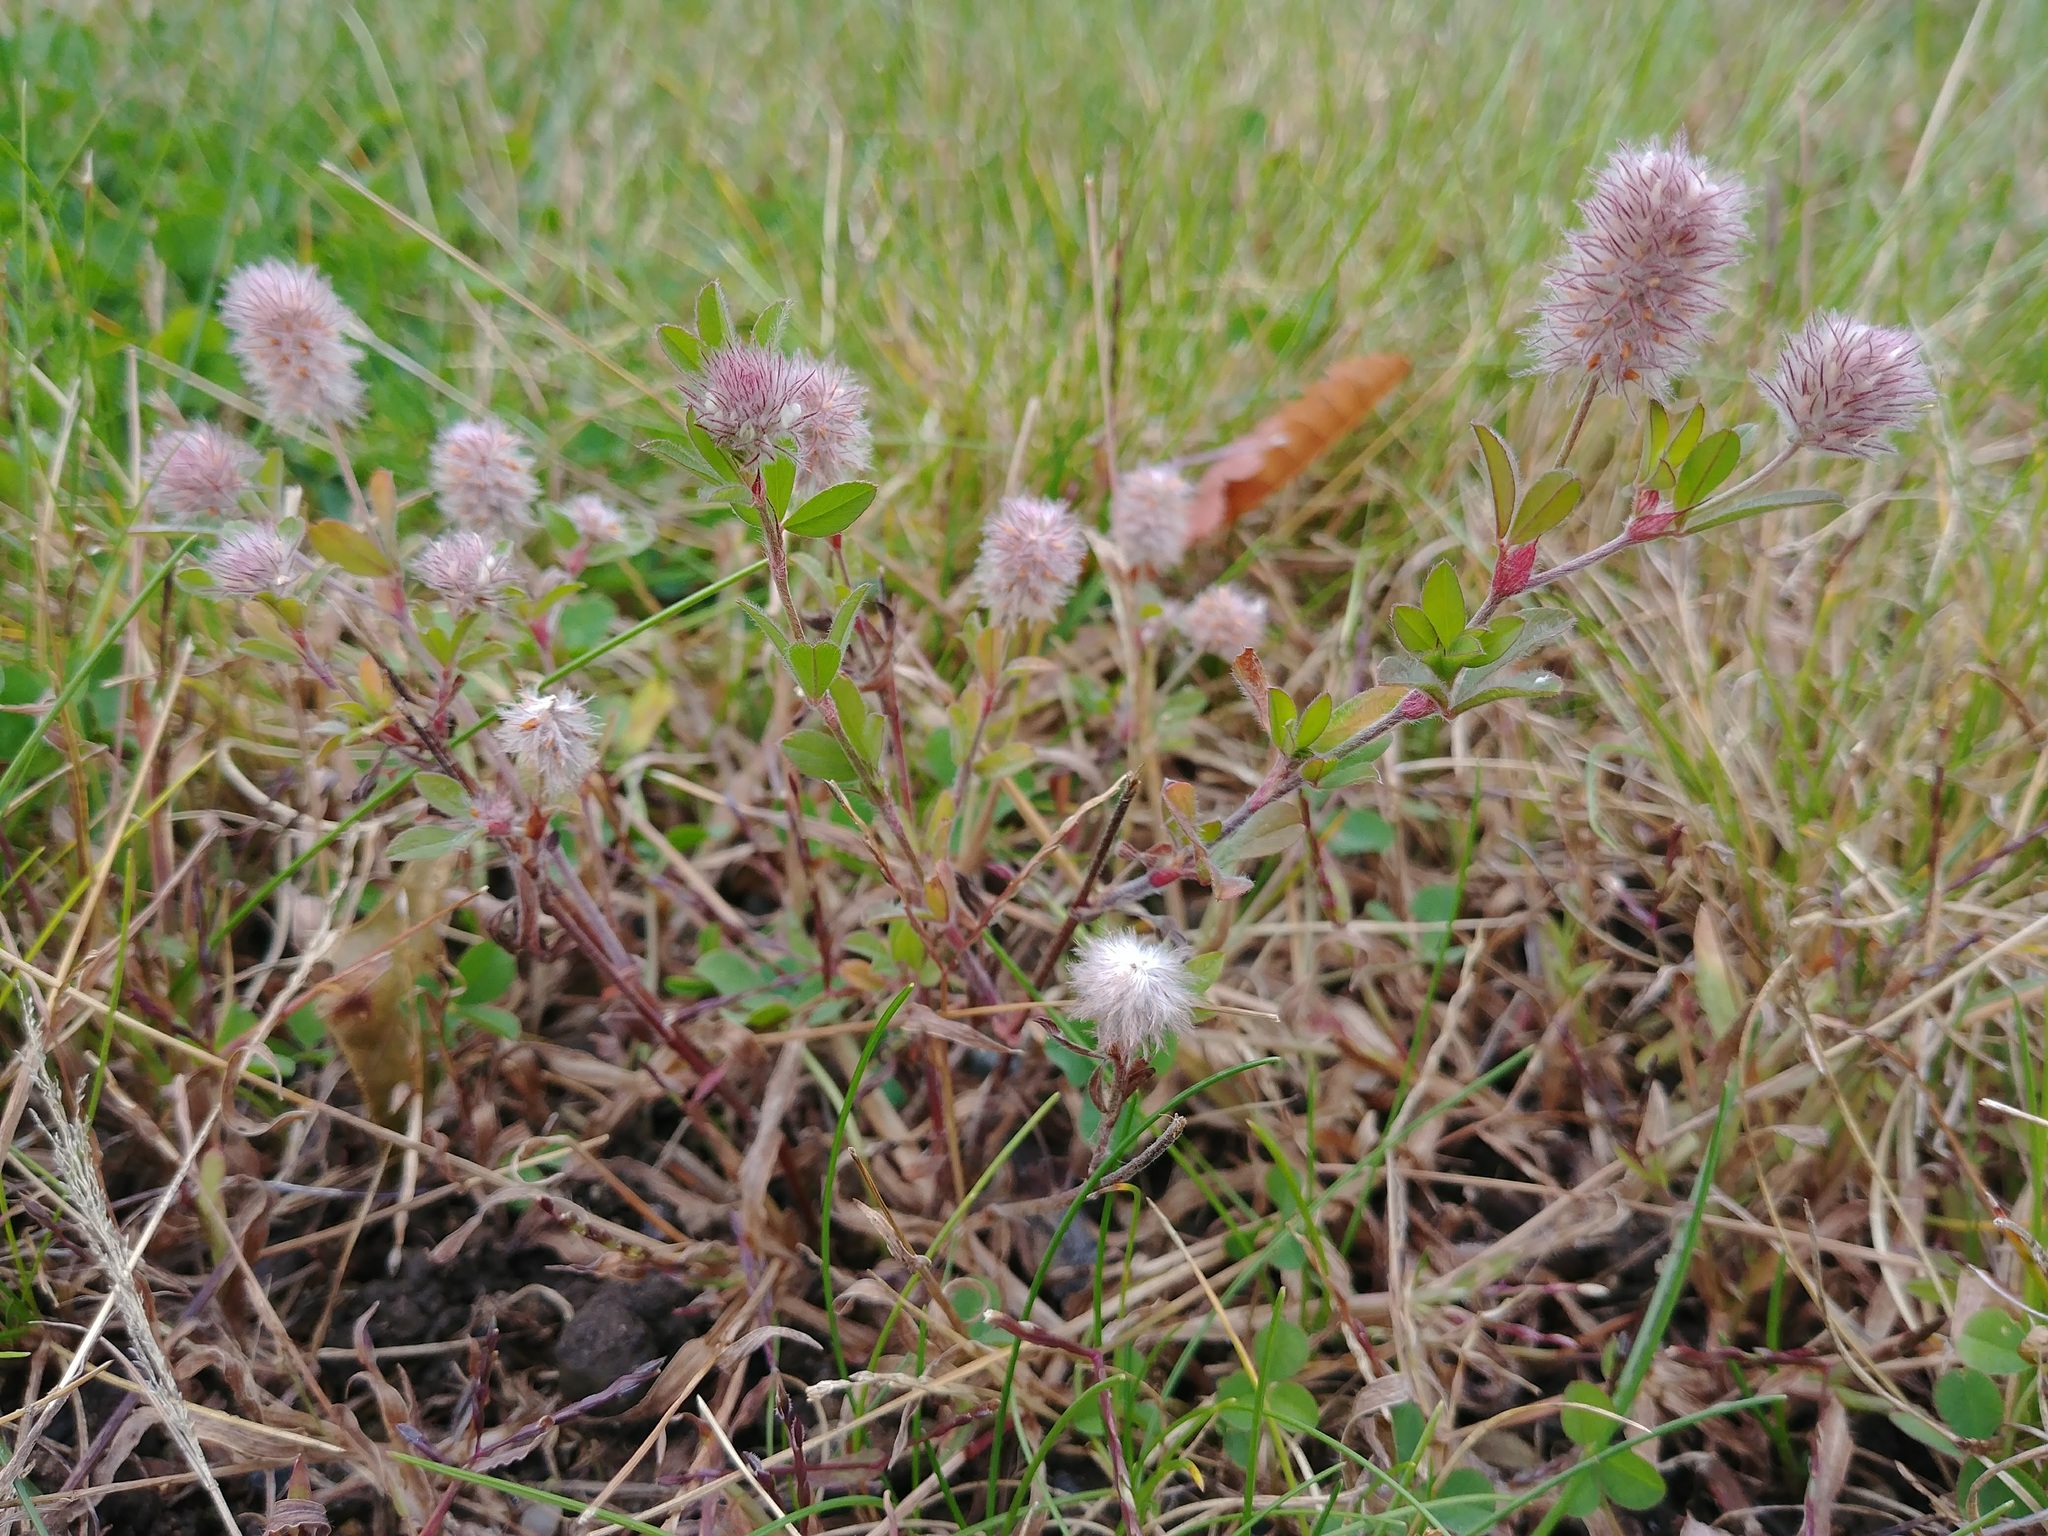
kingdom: Plantae
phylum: Tracheophyta
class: Magnoliopsida
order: Fabales
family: Fabaceae
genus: Trifolium
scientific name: Trifolium arvense
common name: Hare's-foot clover
